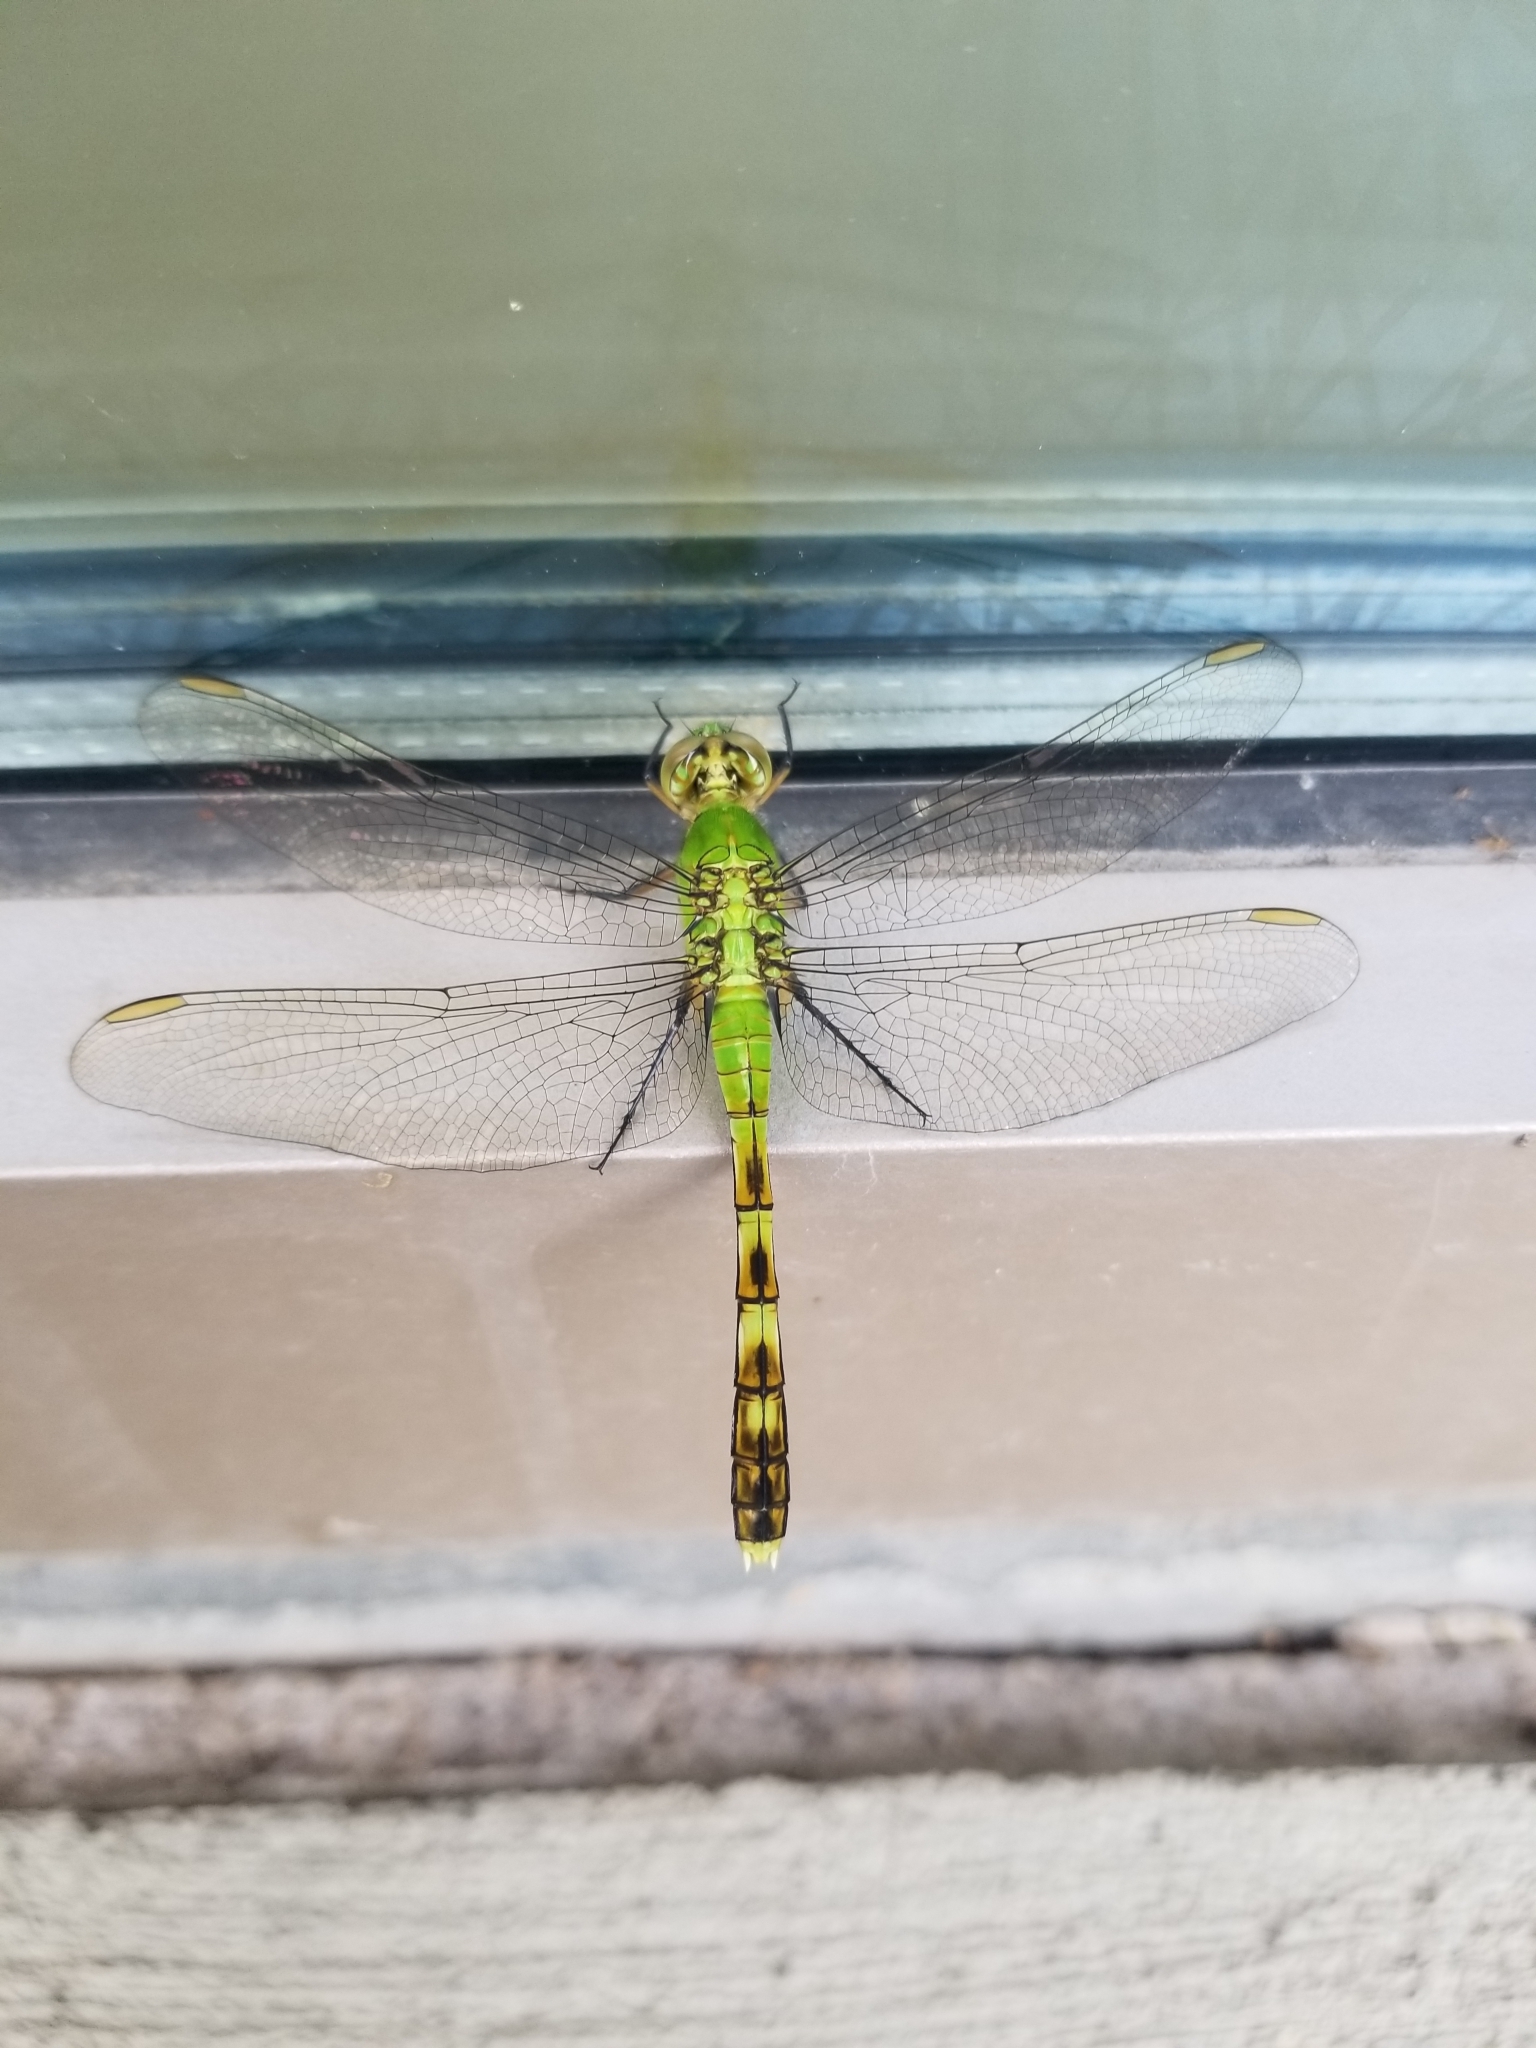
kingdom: Animalia
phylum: Arthropoda
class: Insecta
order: Odonata
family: Libellulidae
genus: Erythemis
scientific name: Erythemis simplicicollis
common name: Eastern pondhawk
